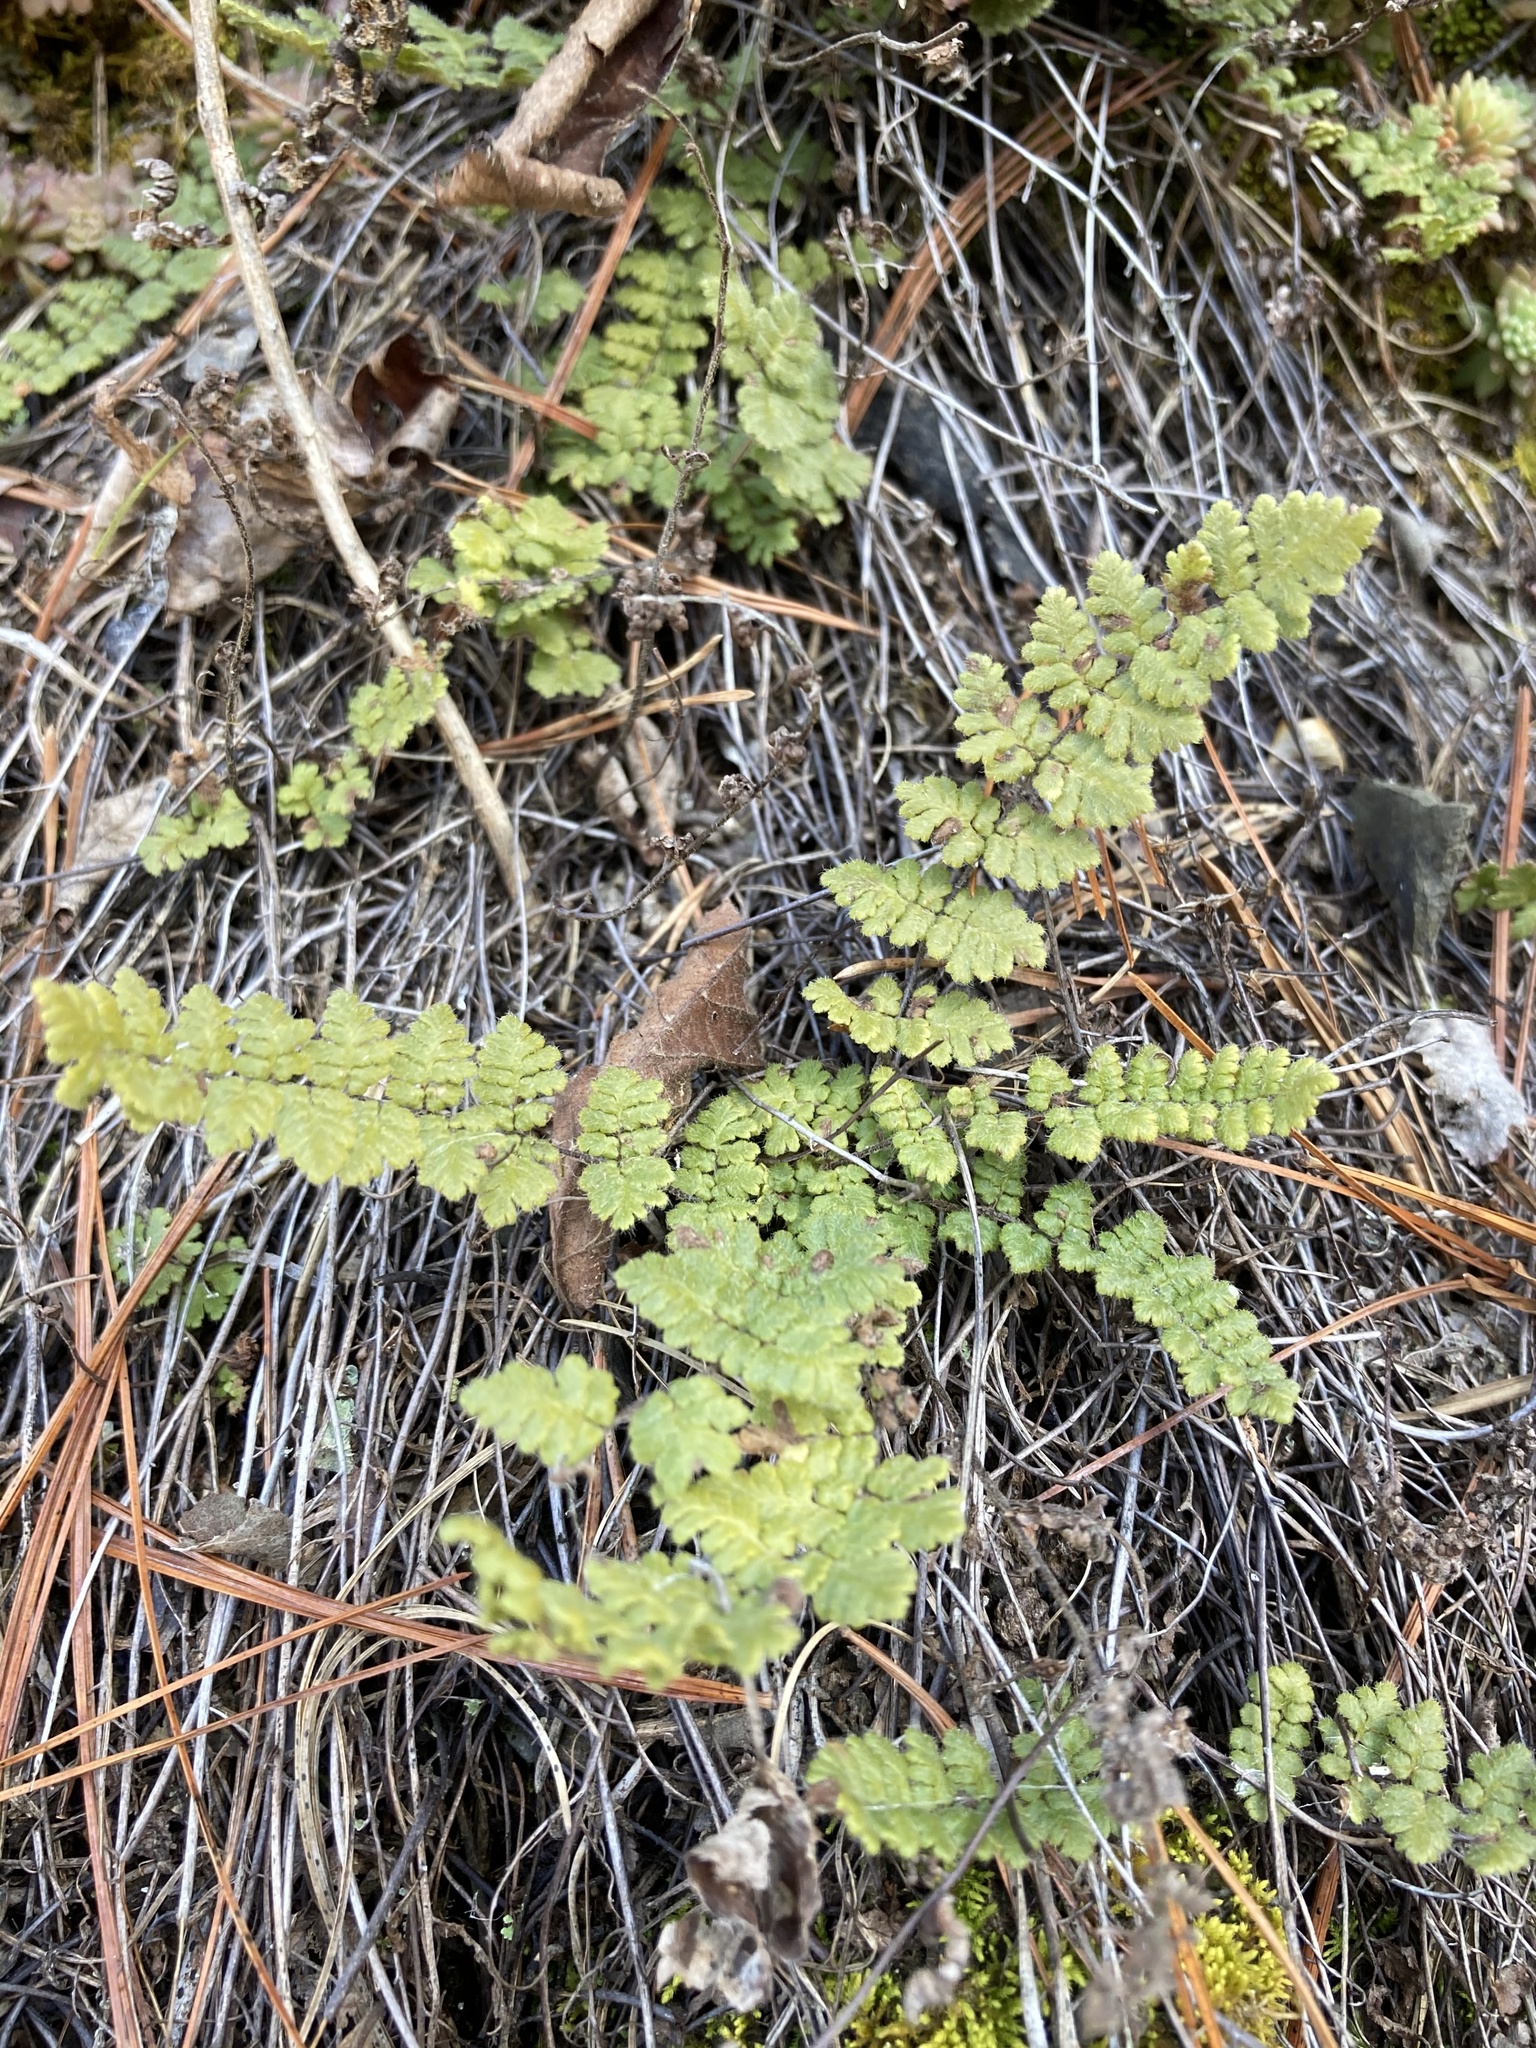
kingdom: Plantae
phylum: Tracheophyta
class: Polypodiopsida
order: Polypodiales
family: Pteridaceae
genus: Myriopteris
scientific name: Myriopteris lanosa
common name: Hairy lip fern
